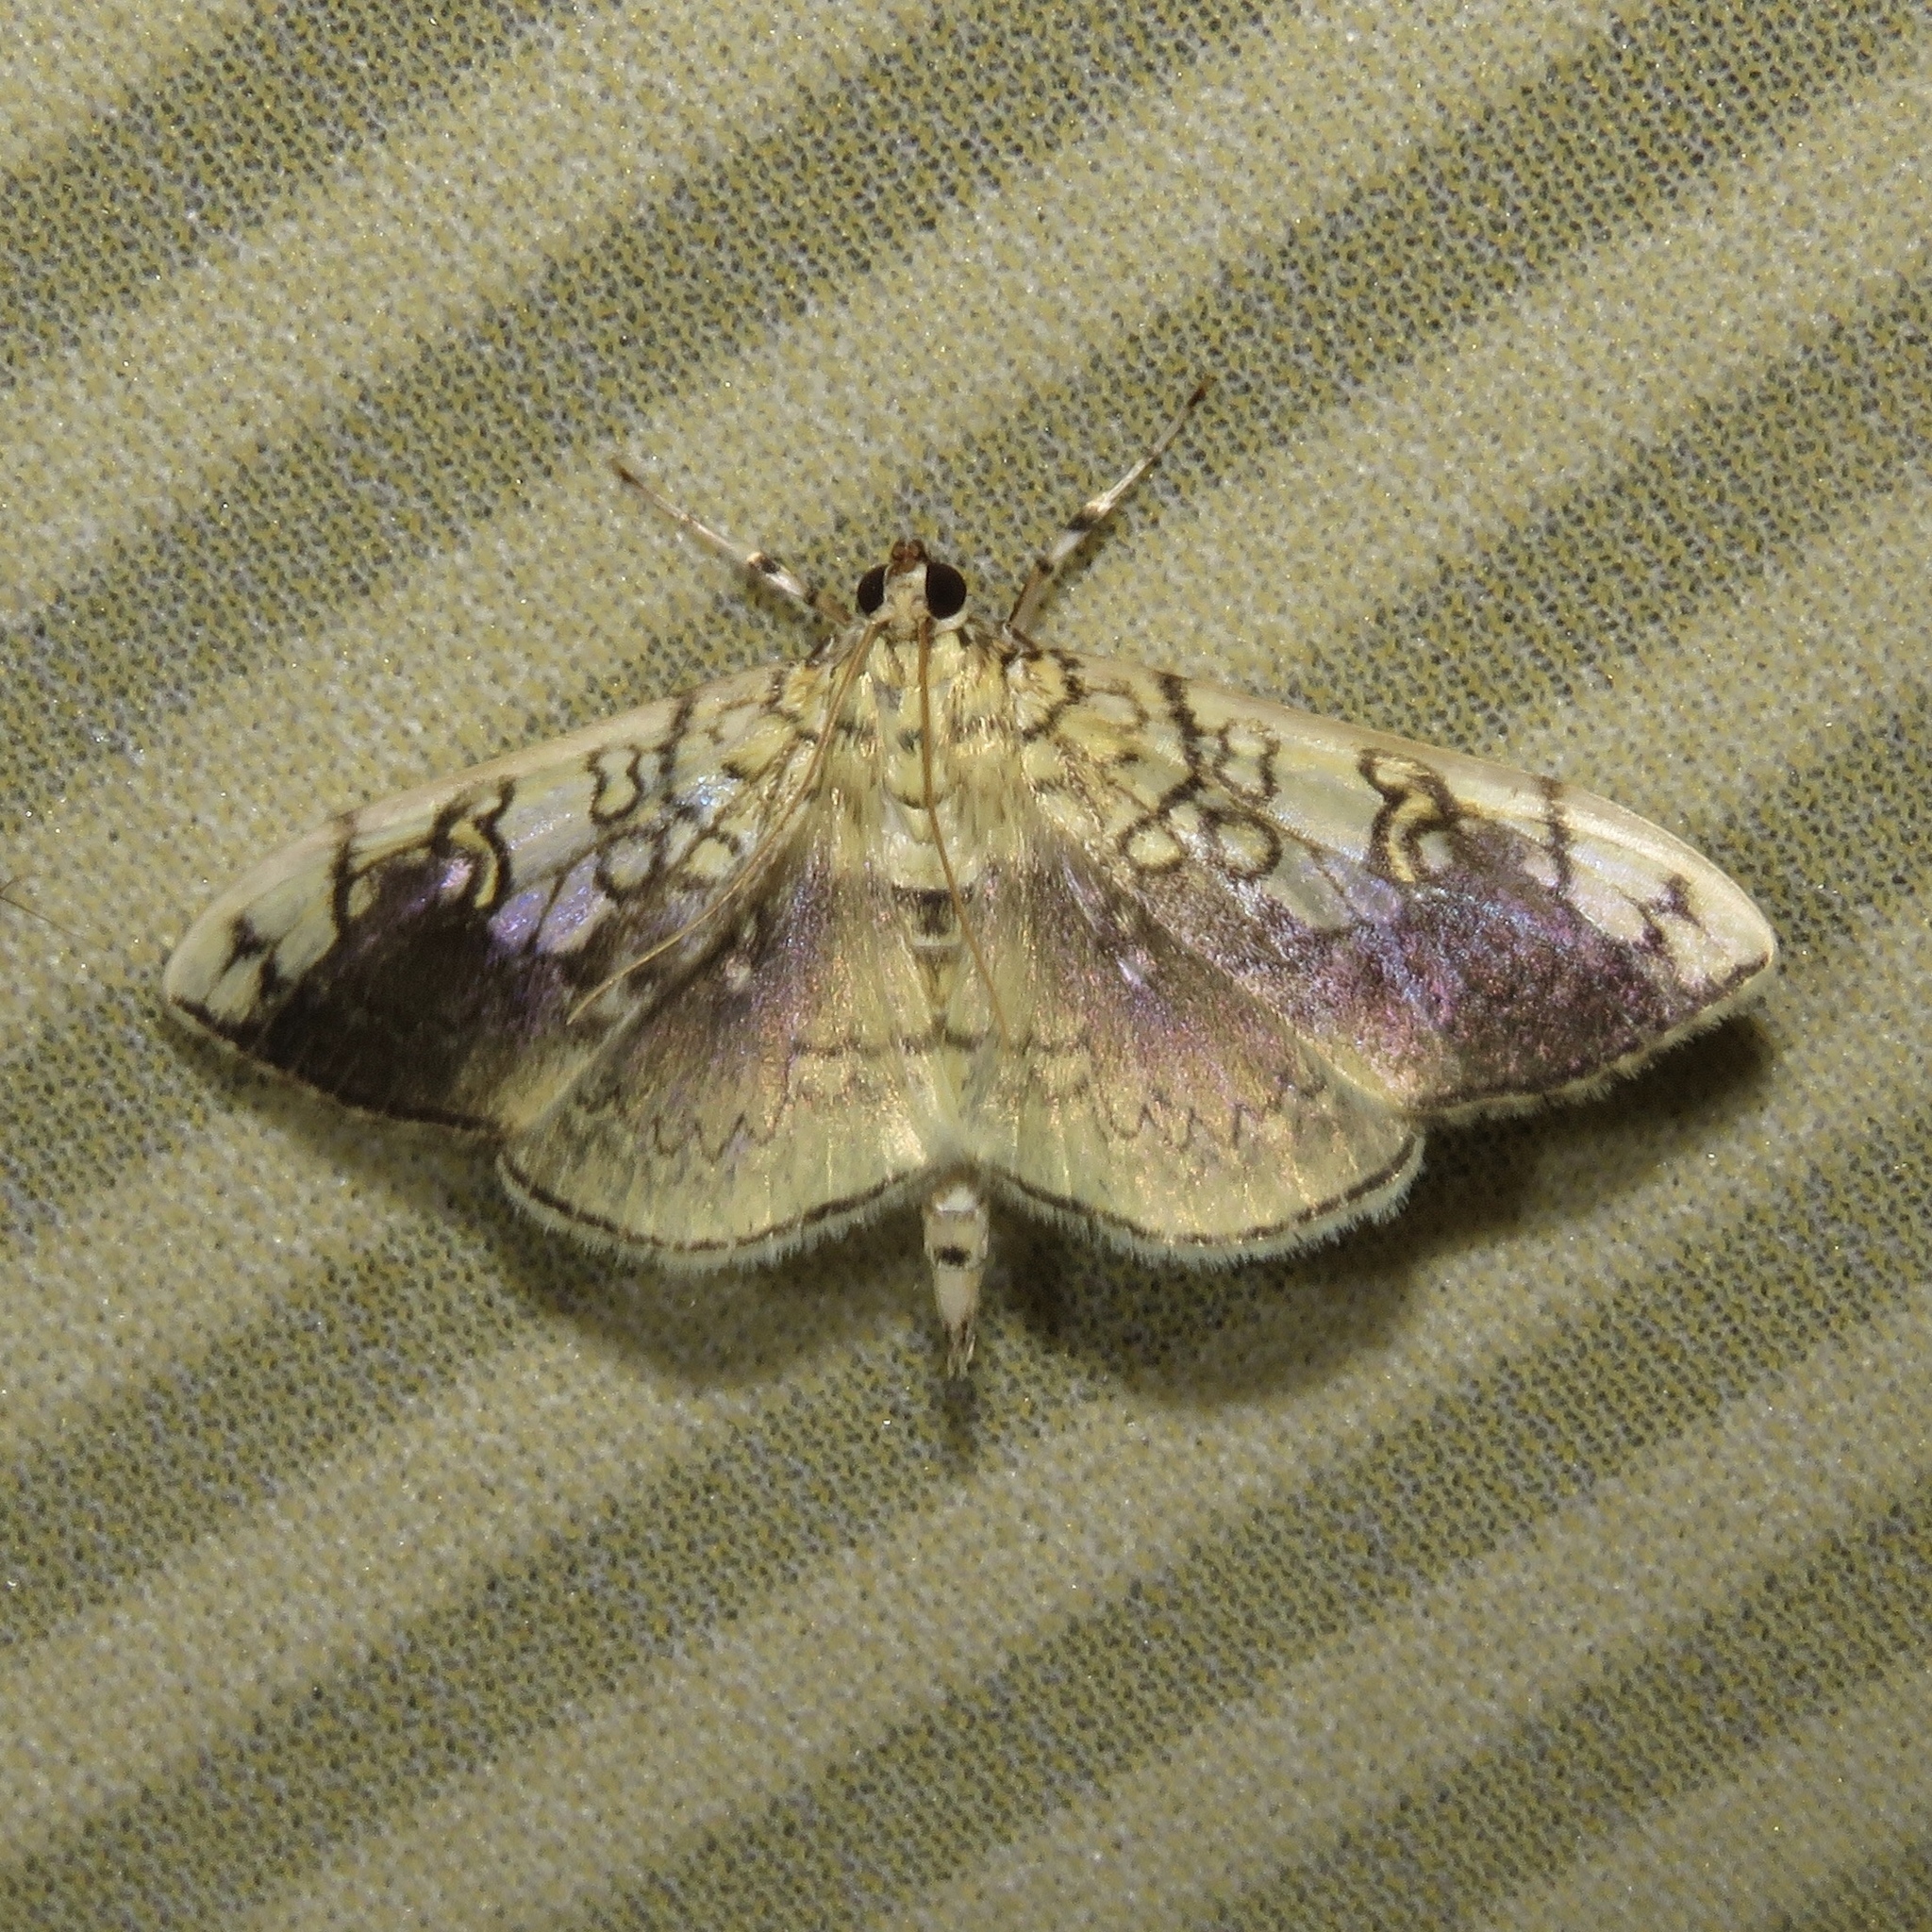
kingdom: Animalia
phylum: Arthropoda
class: Insecta
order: Lepidoptera
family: Crambidae
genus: Pantographa
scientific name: Pantographa limata
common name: Basswood leafroller moth
